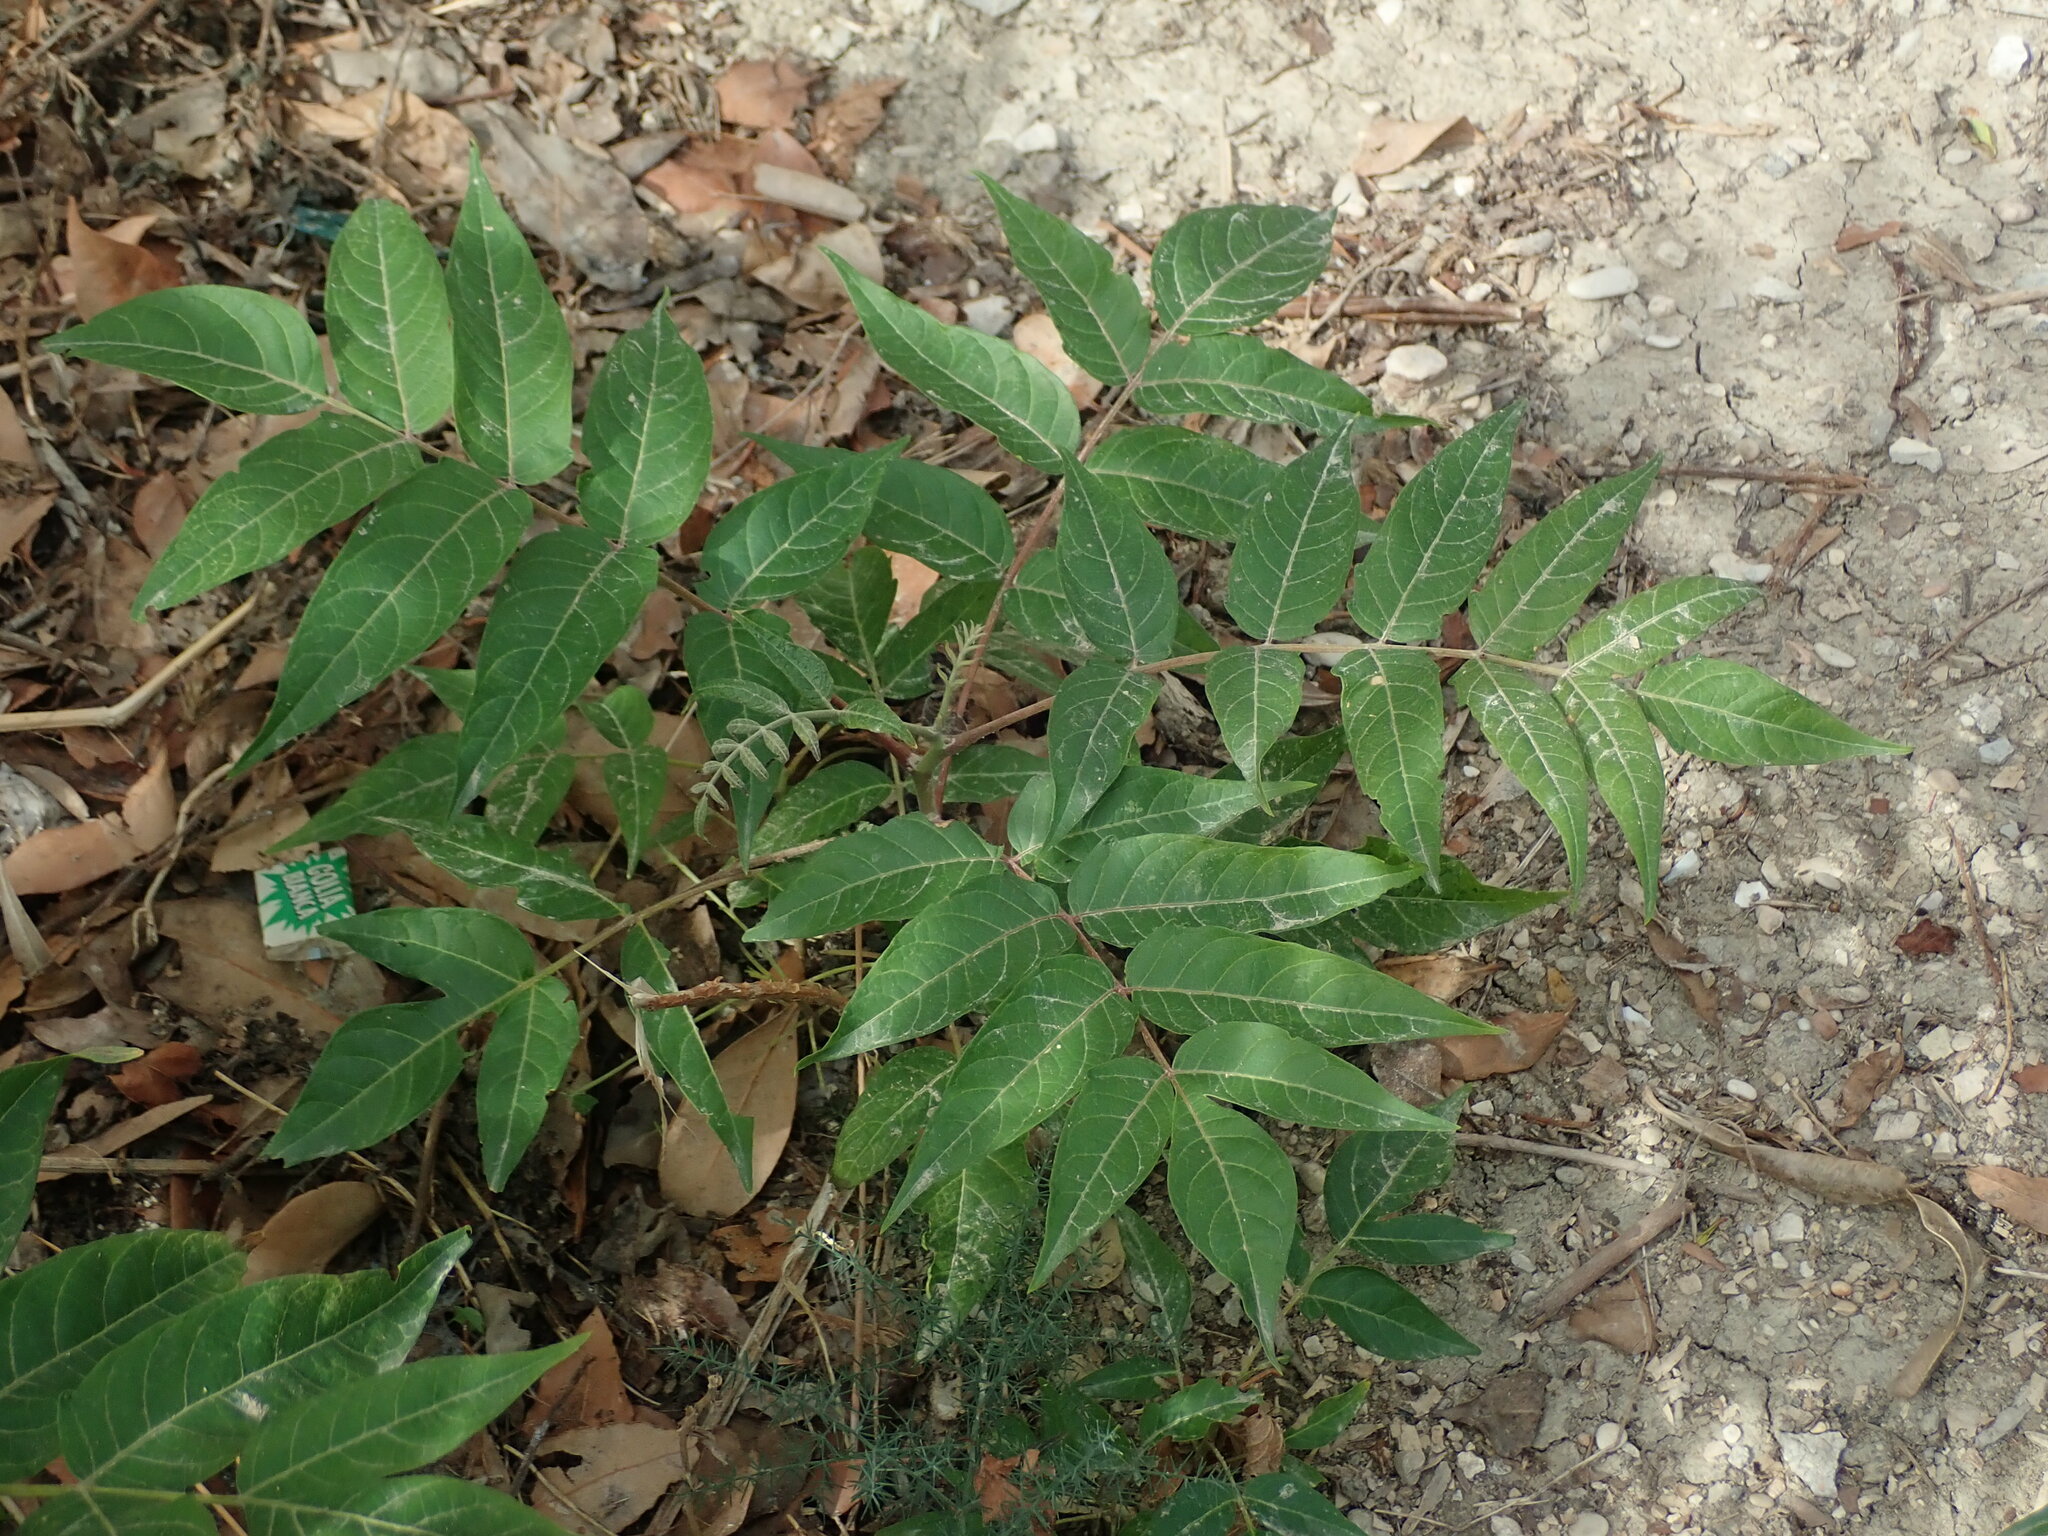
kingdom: Plantae
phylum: Tracheophyta
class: Magnoliopsida
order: Sapindales
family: Simaroubaceae
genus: Ailanthus
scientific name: Ailanthus altissima
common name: Tree-of-heaven
